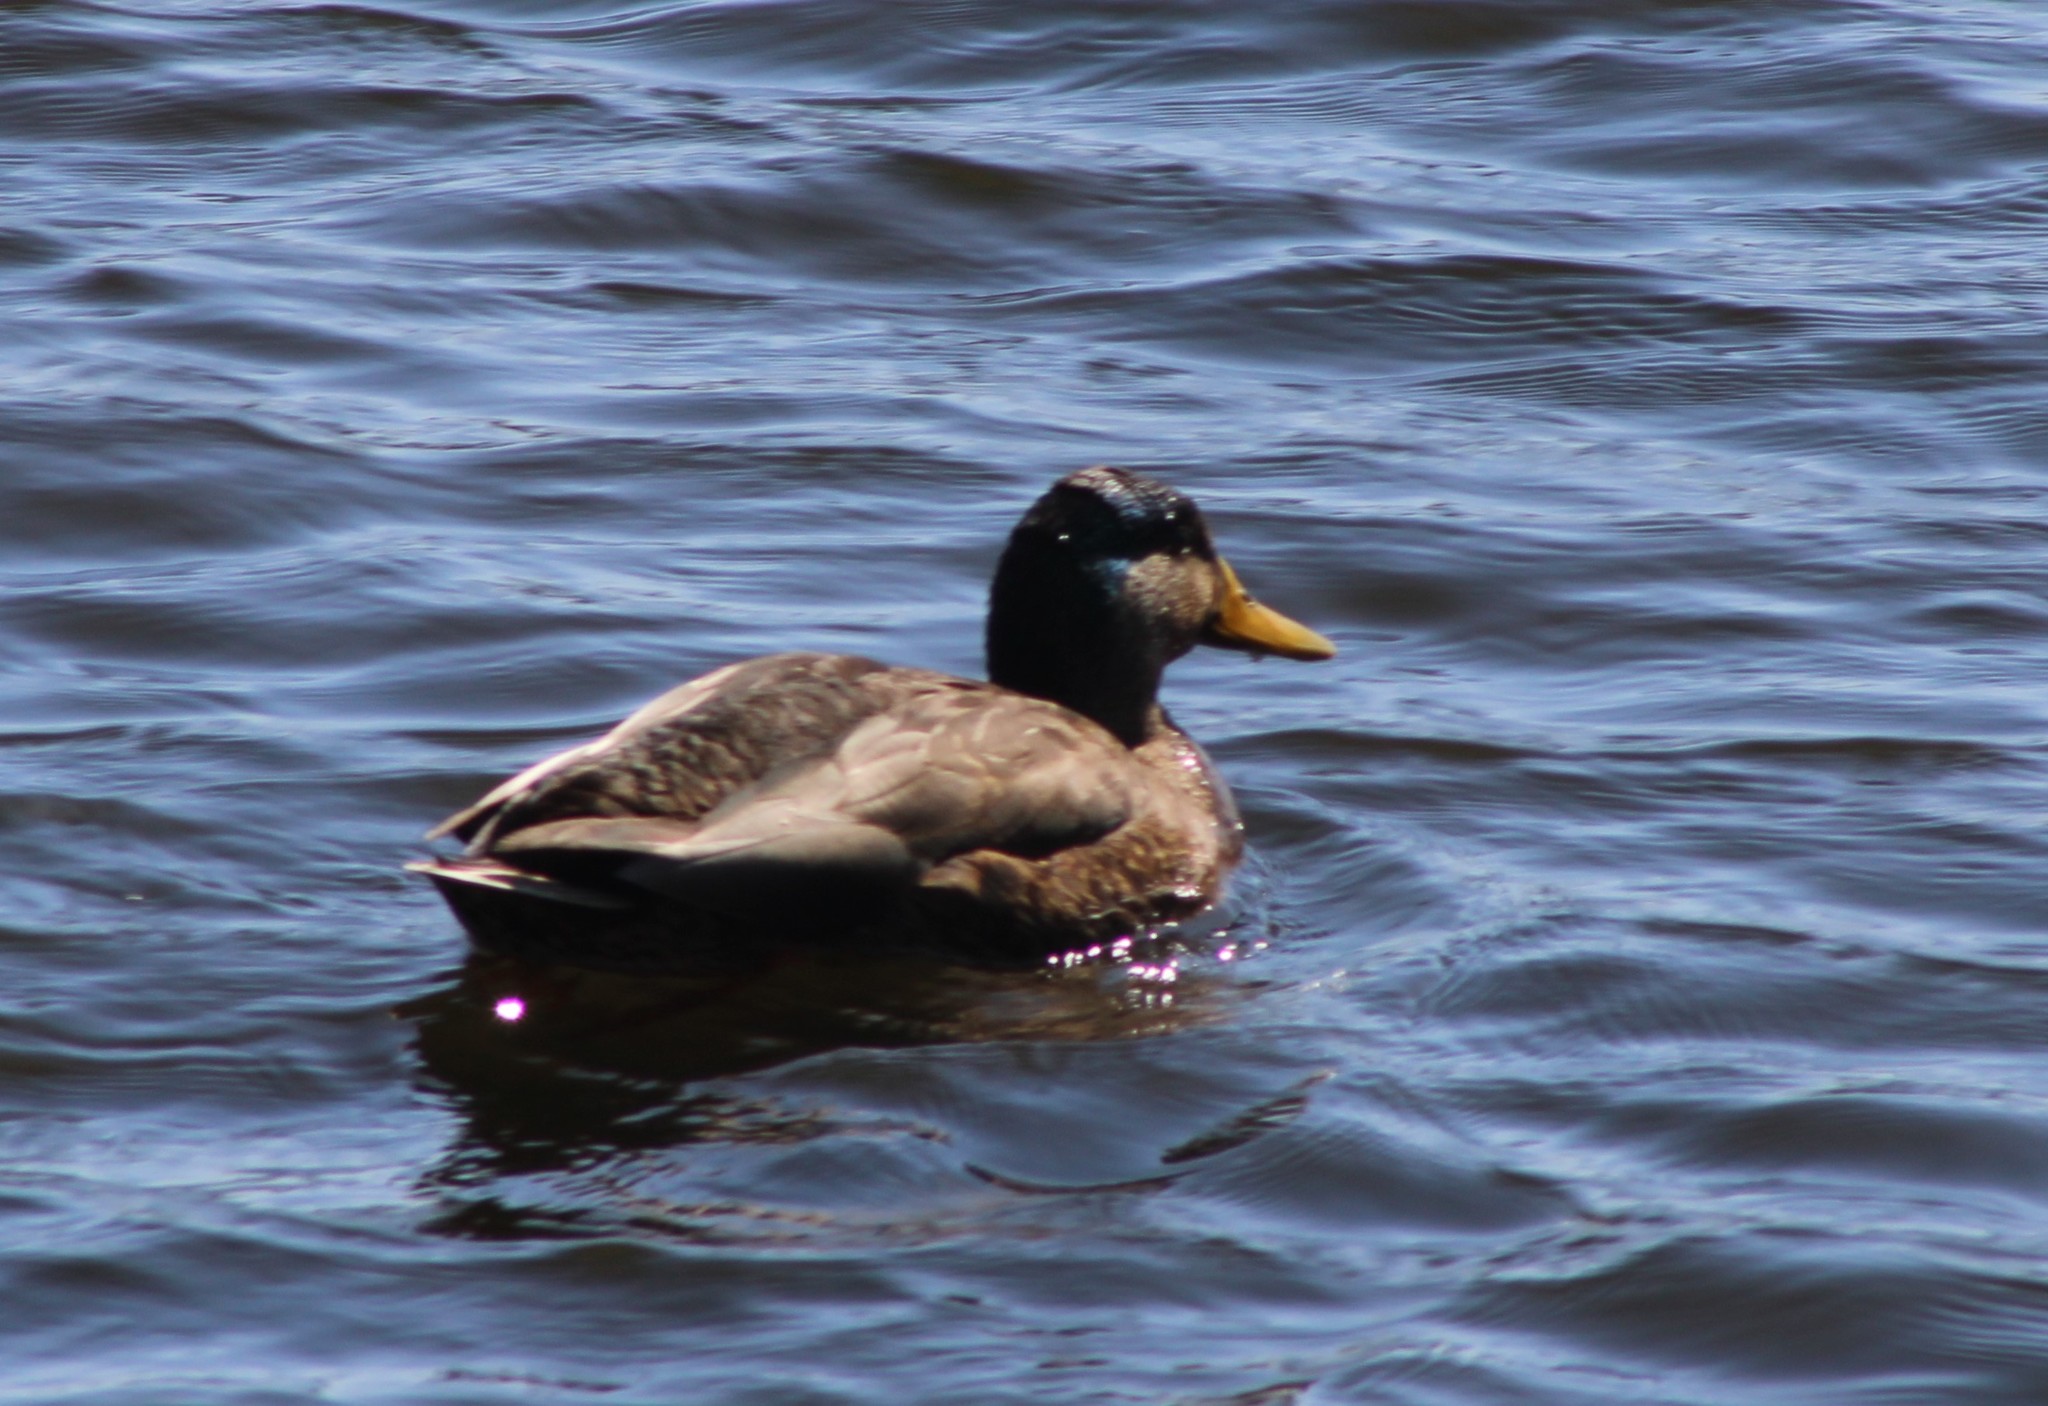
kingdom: Animalia
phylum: Chordata
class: Aves
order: Anseriformes
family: Anatidae
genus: Anas
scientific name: Anas
